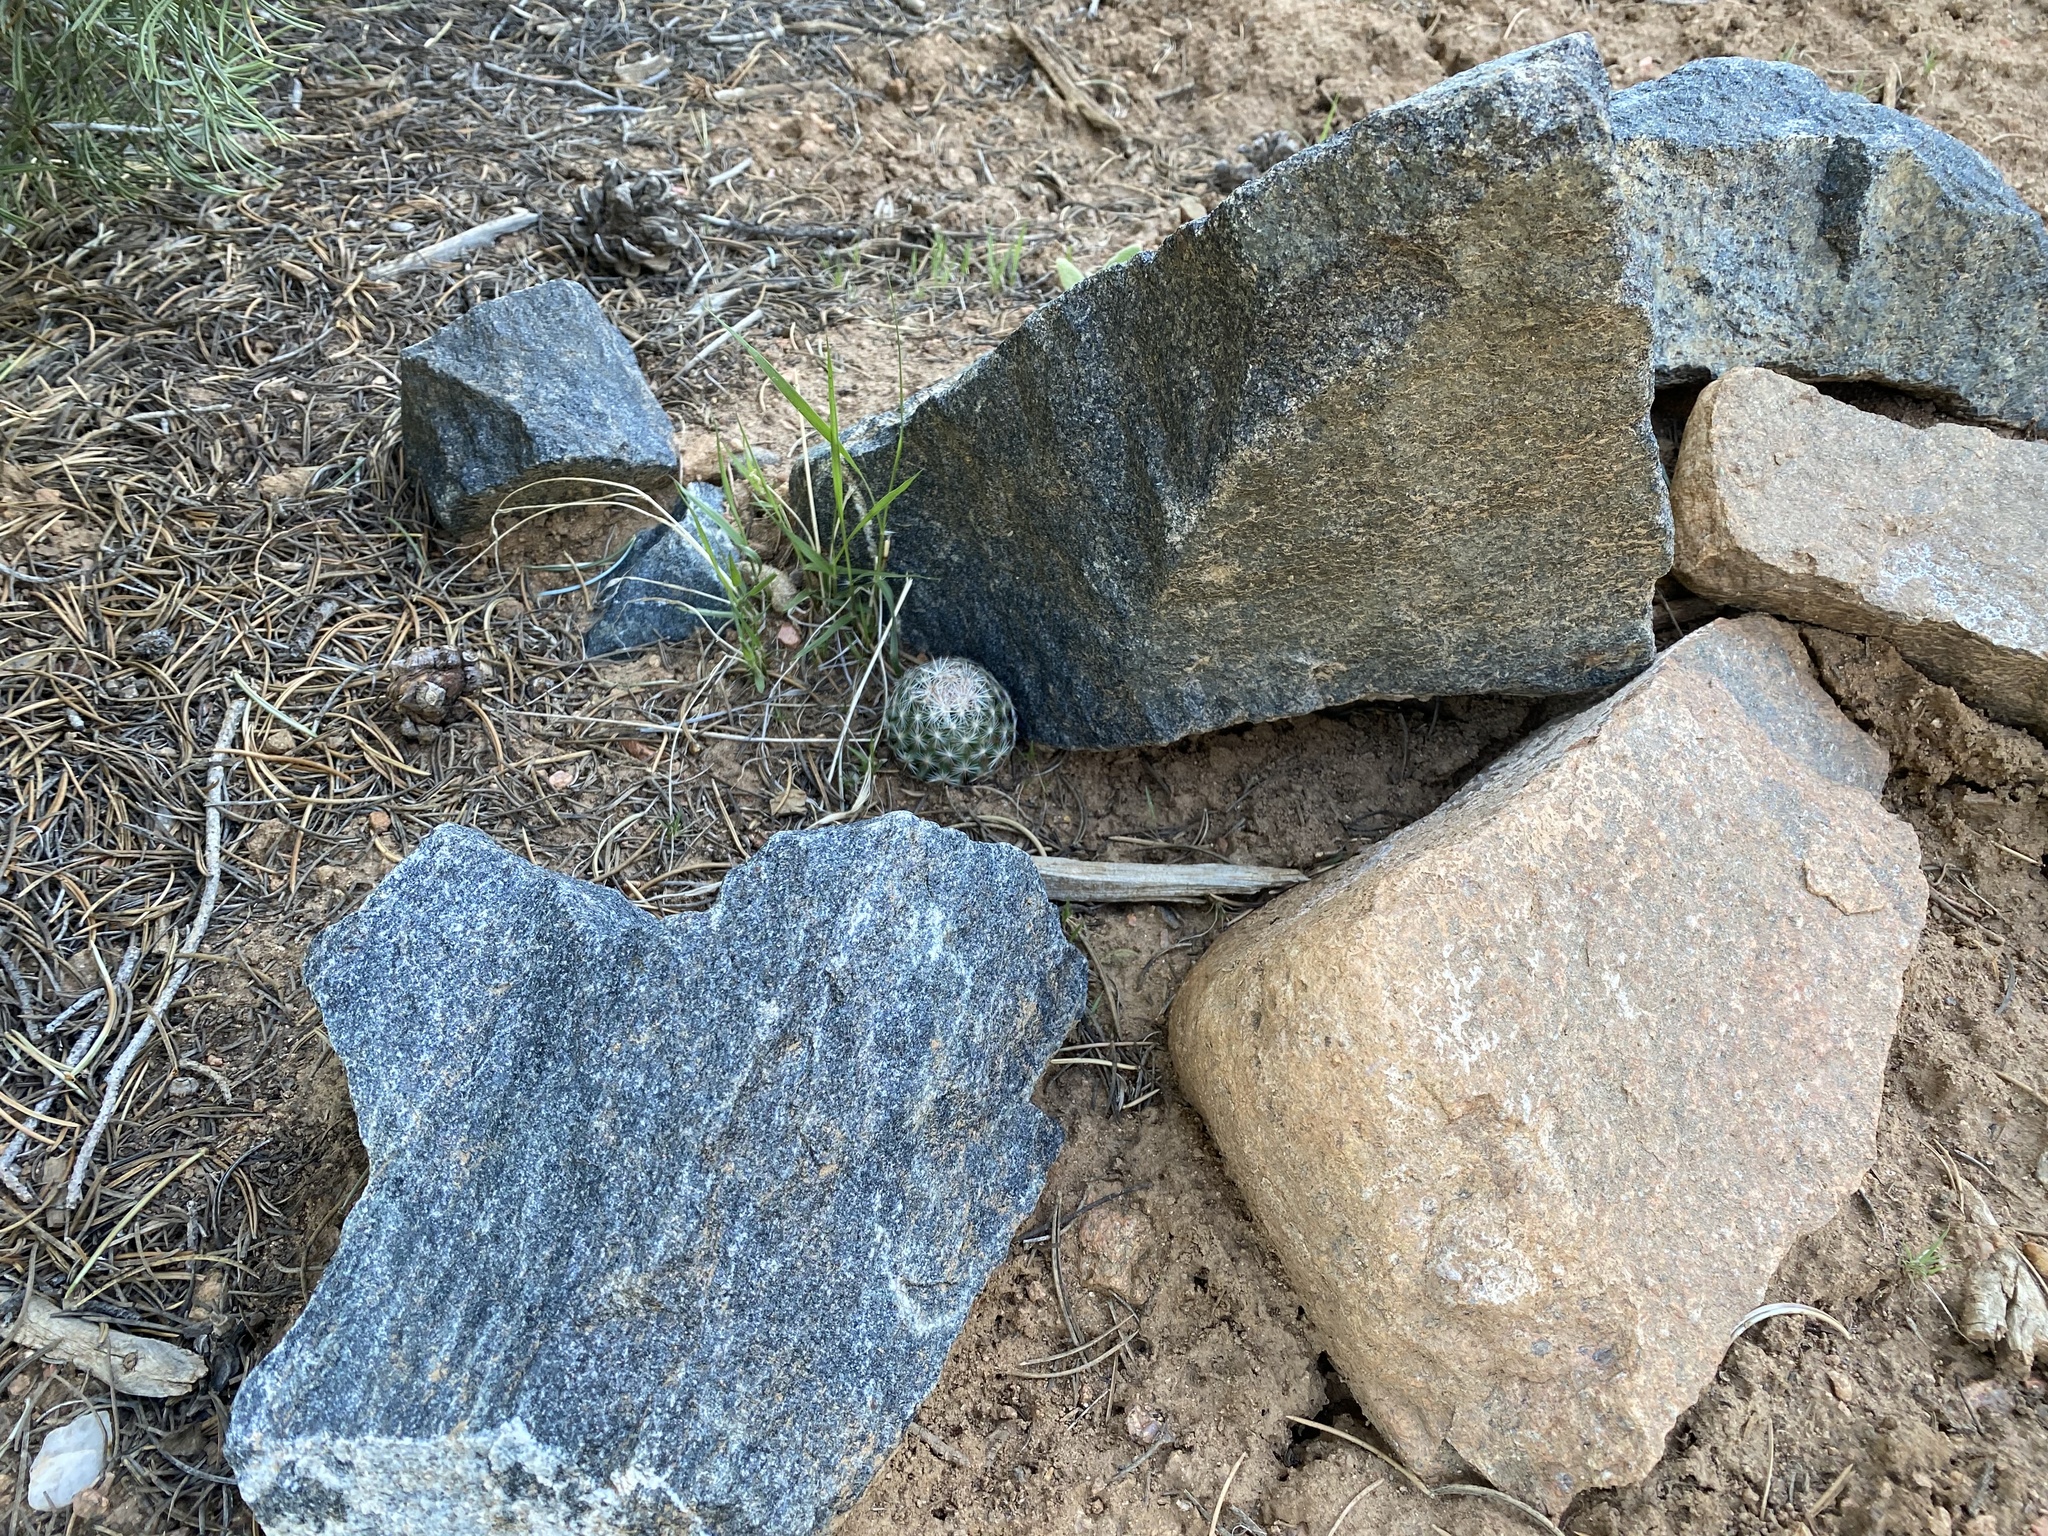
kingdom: Plantae
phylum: Tracheophyta
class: Magnoliopsida
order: Caryophyllales
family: Cactaceae
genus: Pelecyphora
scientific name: Pelecyphora vivipara
